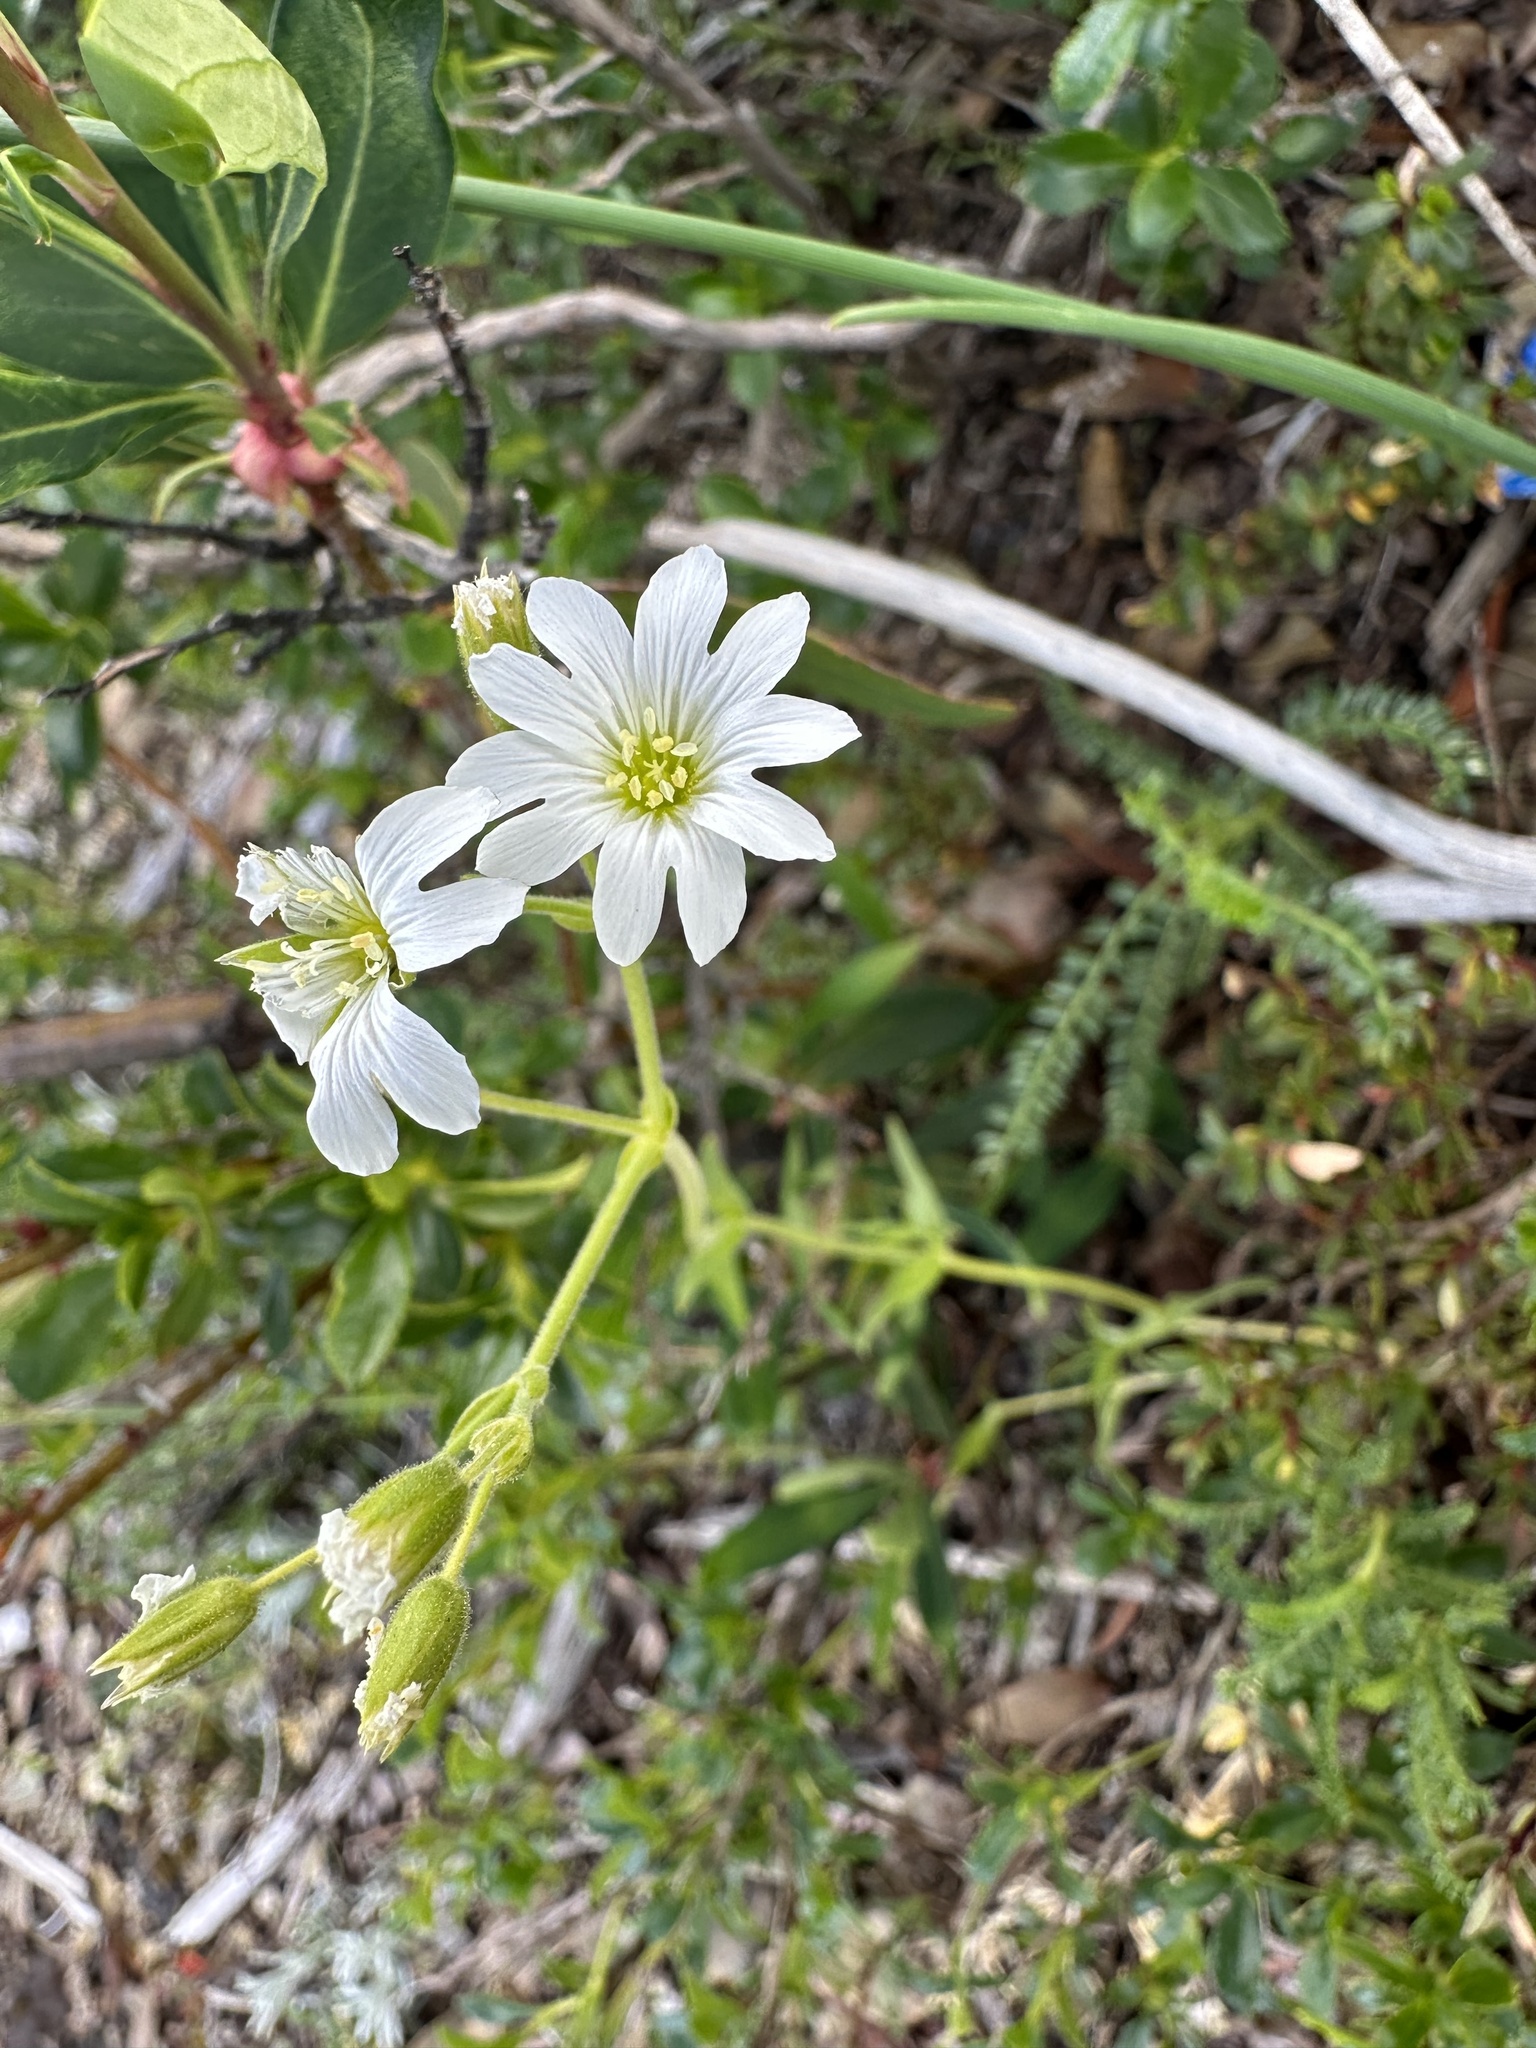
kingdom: Plantae
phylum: Tracheophyta
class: Magnoliopsida
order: Caryophyllales
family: Caryophyllaceae
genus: Cerastium
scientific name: Cerastium arvense
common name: Field mouse-ear
